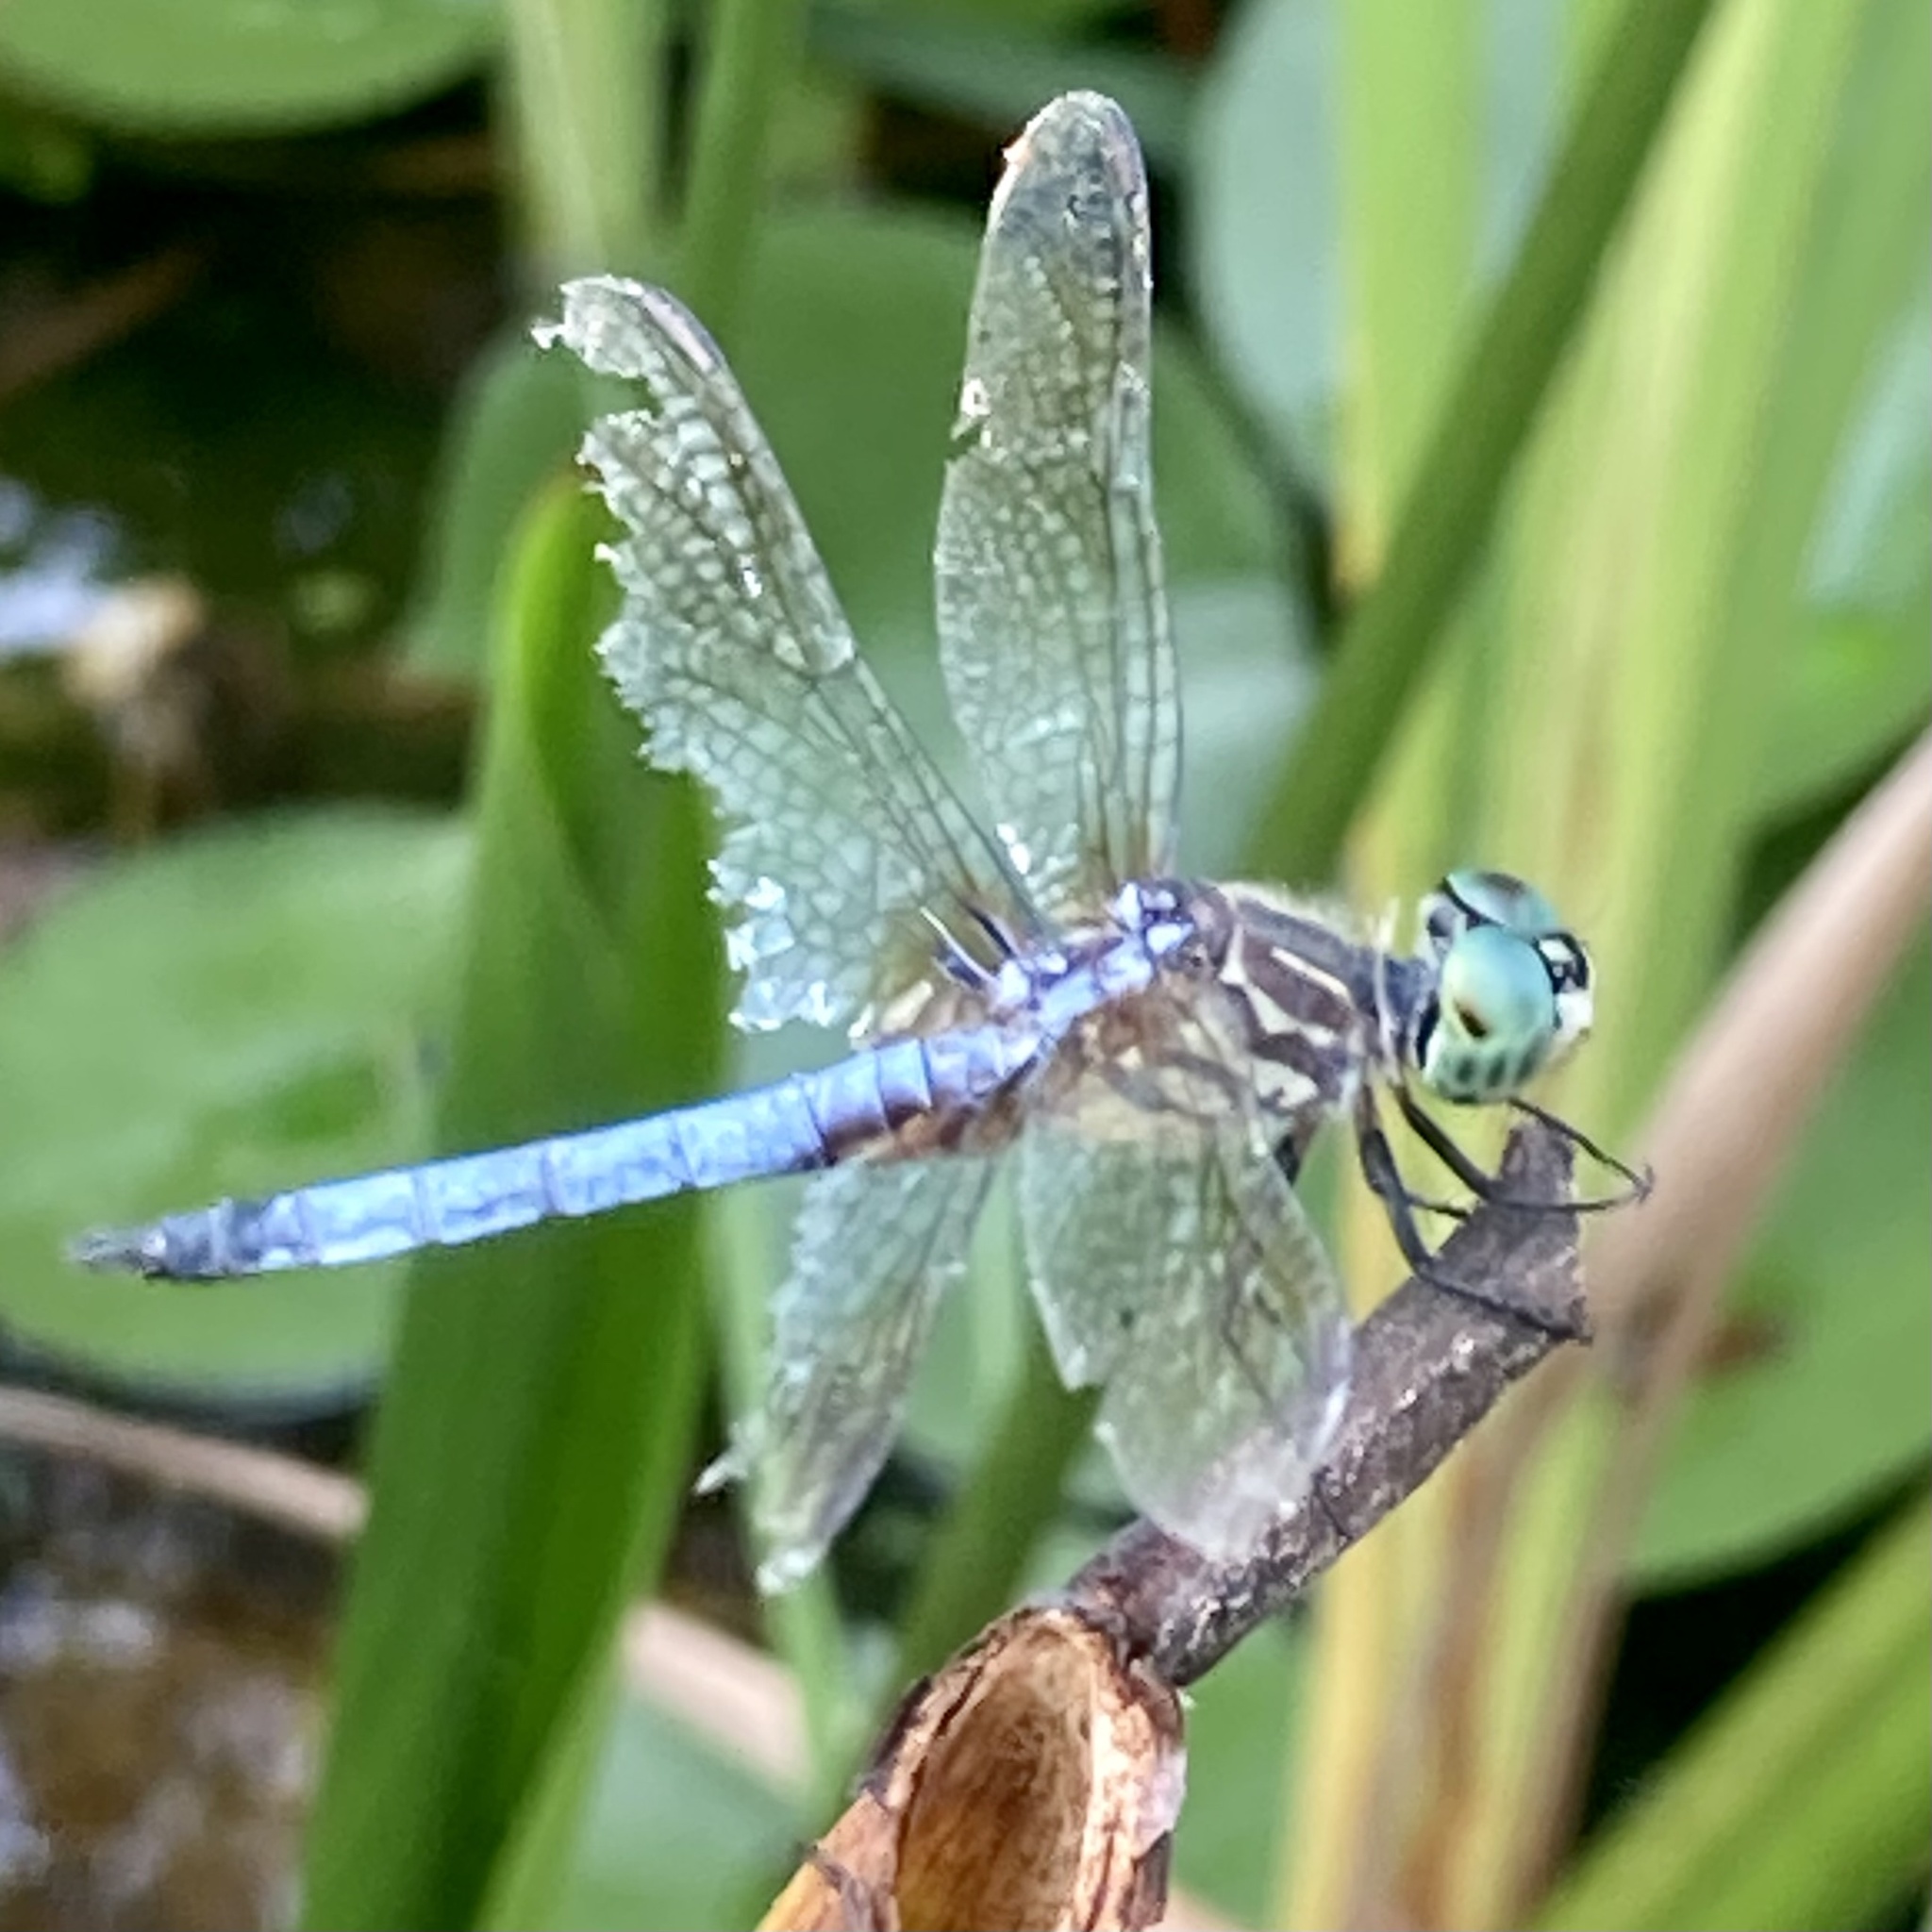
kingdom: Animalia
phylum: Arthropoda
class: Insecta
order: Odonata
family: Libellulidae
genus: Pachydiplax
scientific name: Pachydiplax longipennis
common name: Blue dasher
